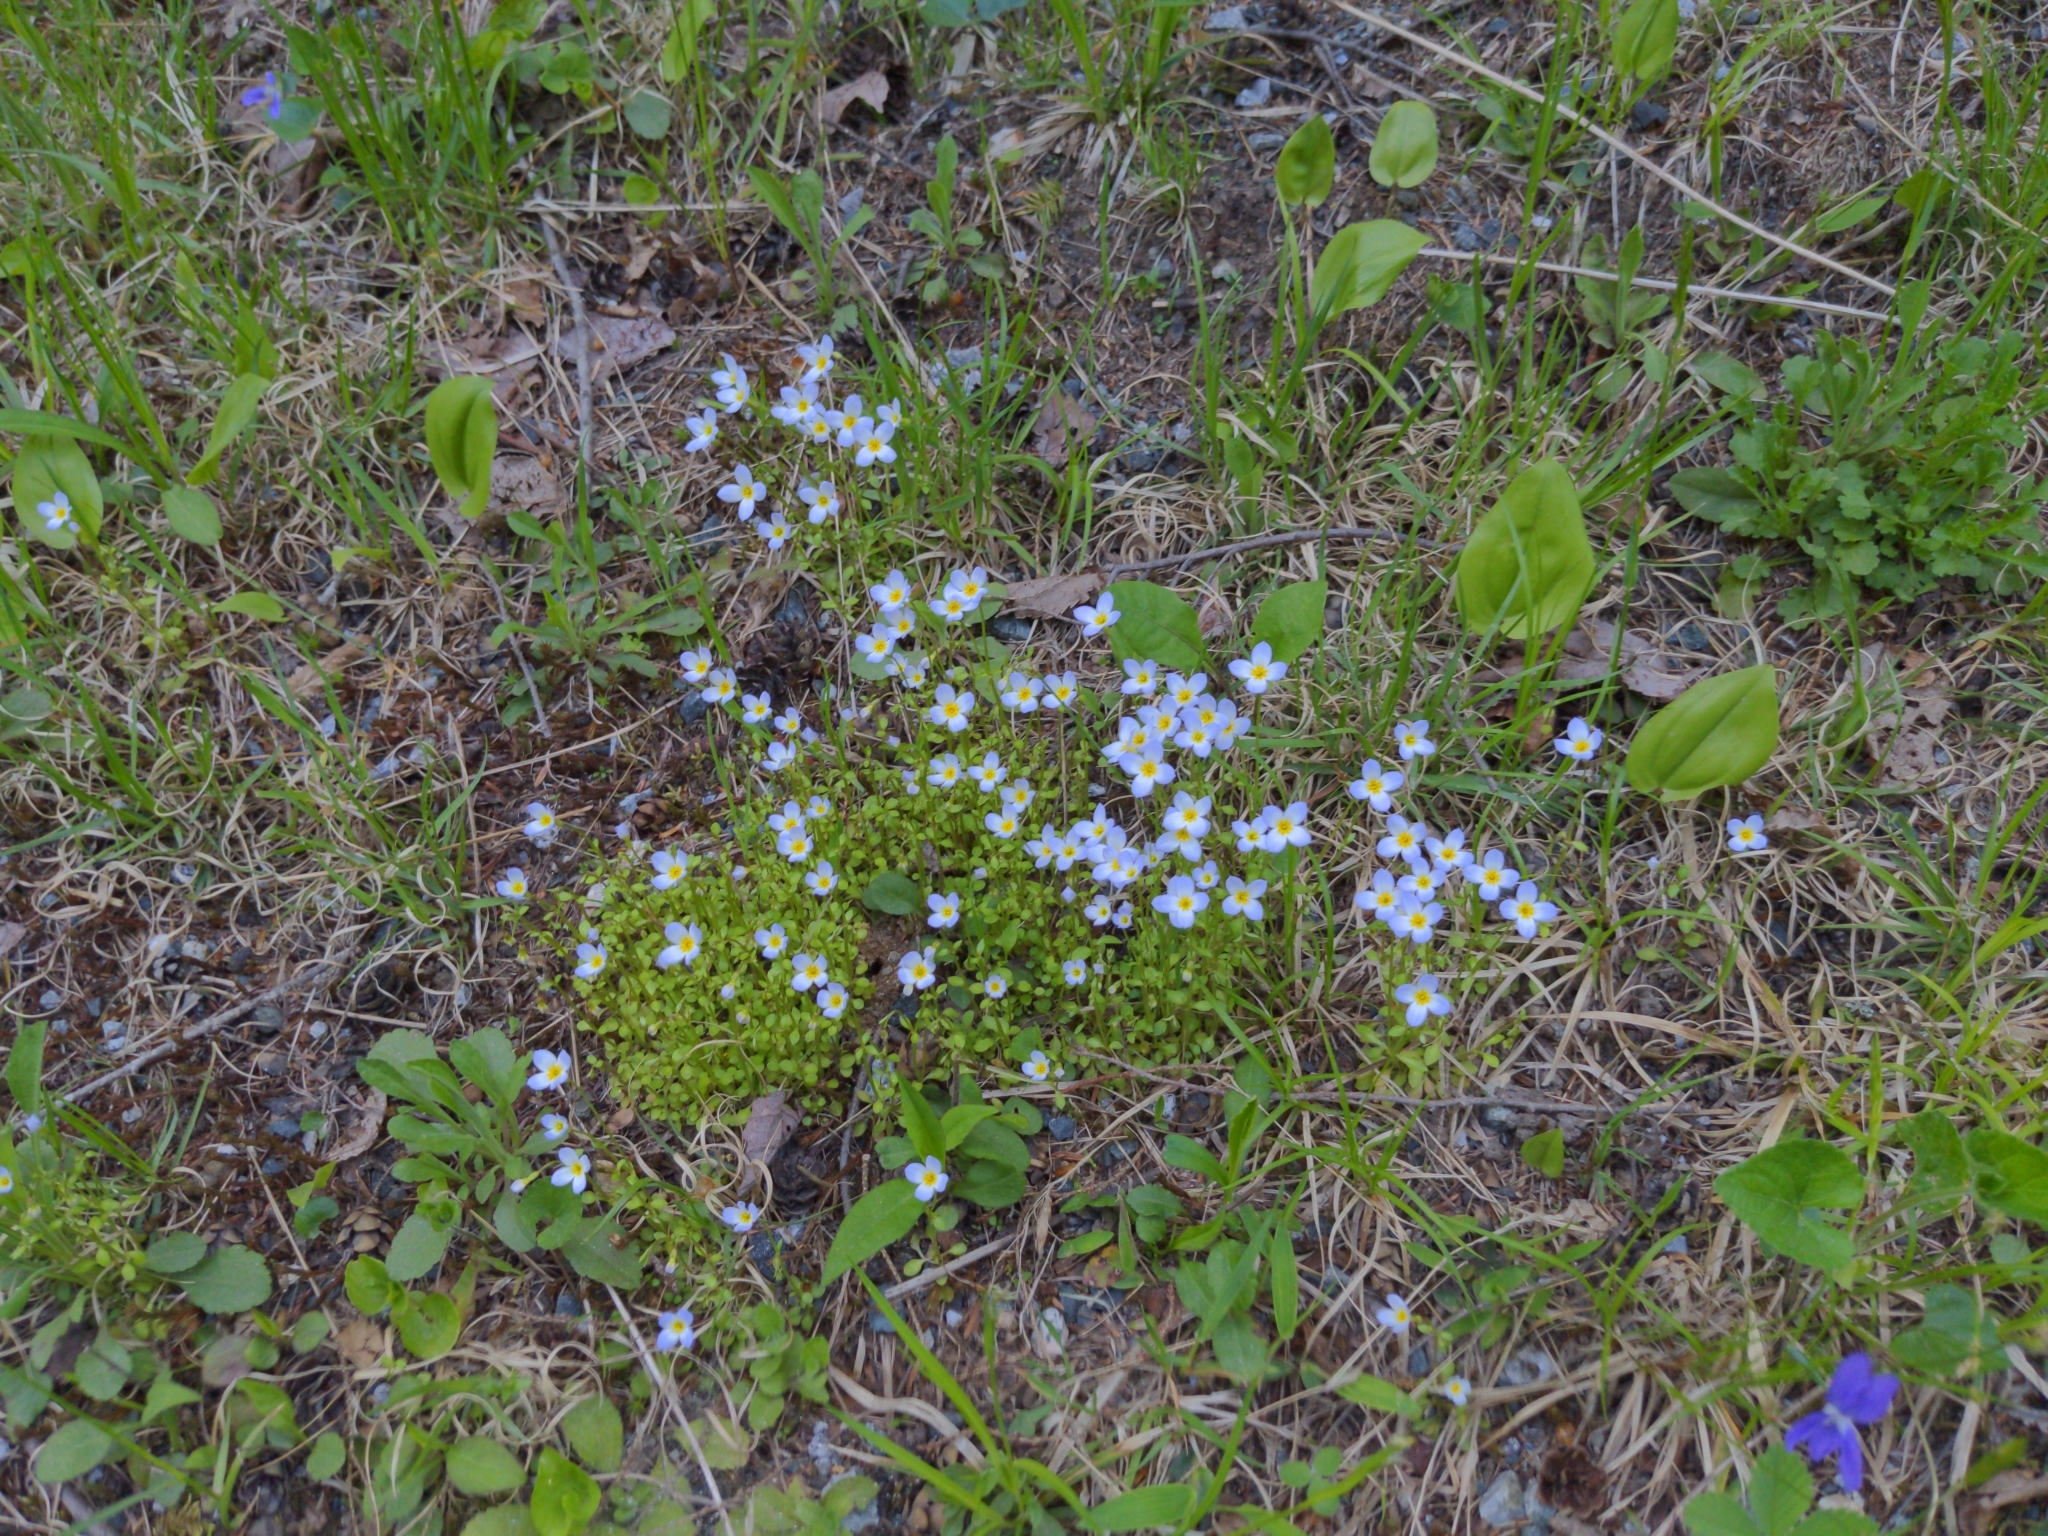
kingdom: Plantae
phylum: Tracheophyta
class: Magnoliopsida
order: Gentianales
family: Rubiaceae
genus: Houstonia
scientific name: Houstonia caerulea
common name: Bluets
